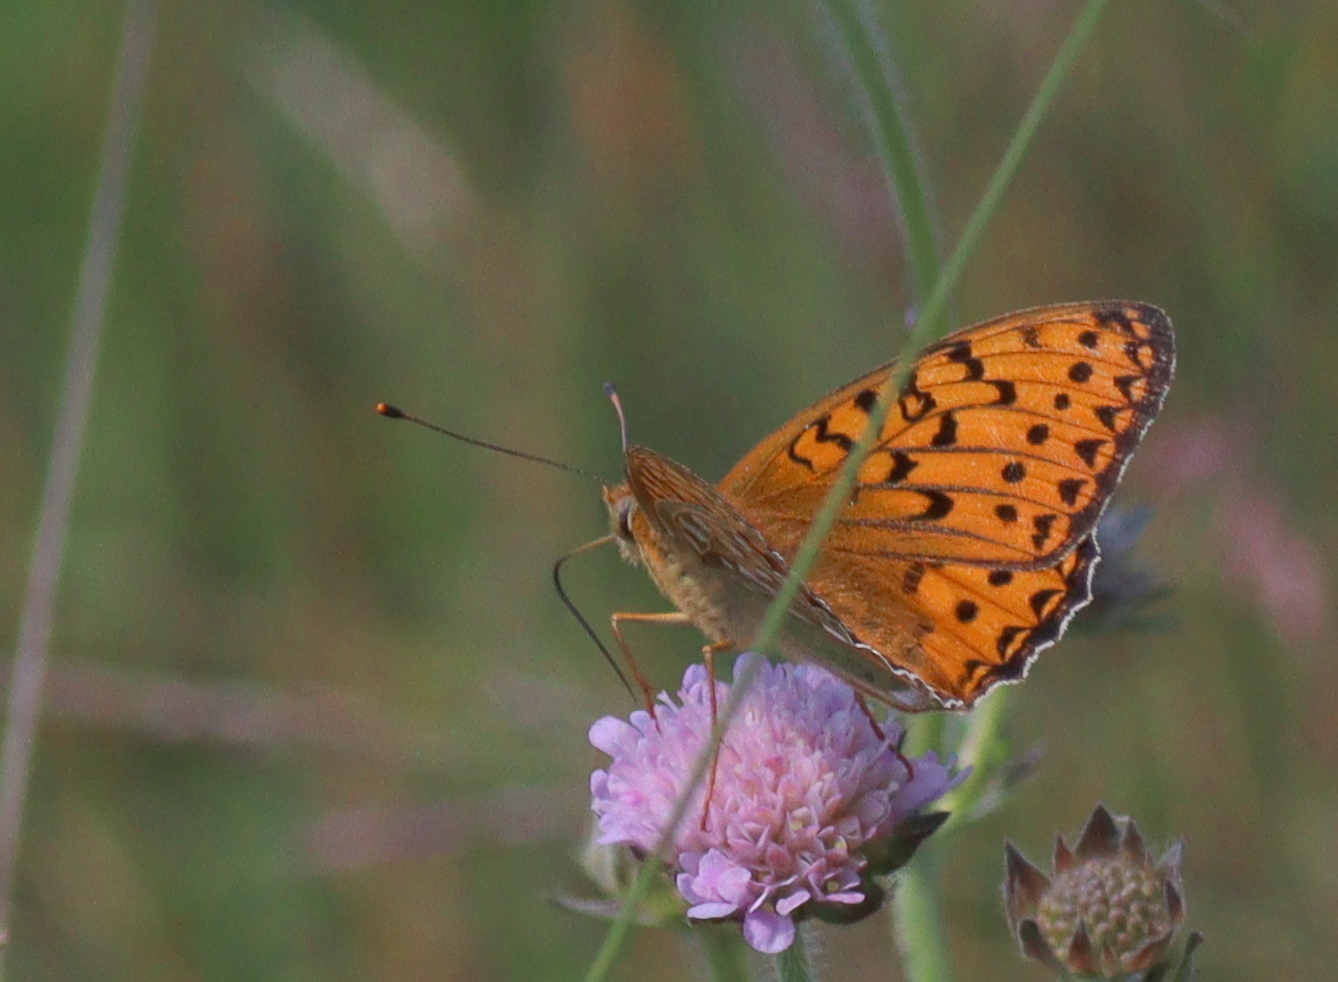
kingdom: Animalia
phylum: Arthropoda
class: Insecta
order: Lepidoptera
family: Nymphalidae
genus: Speyeria
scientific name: Speyeria aglaja
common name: Dark green fritillary
